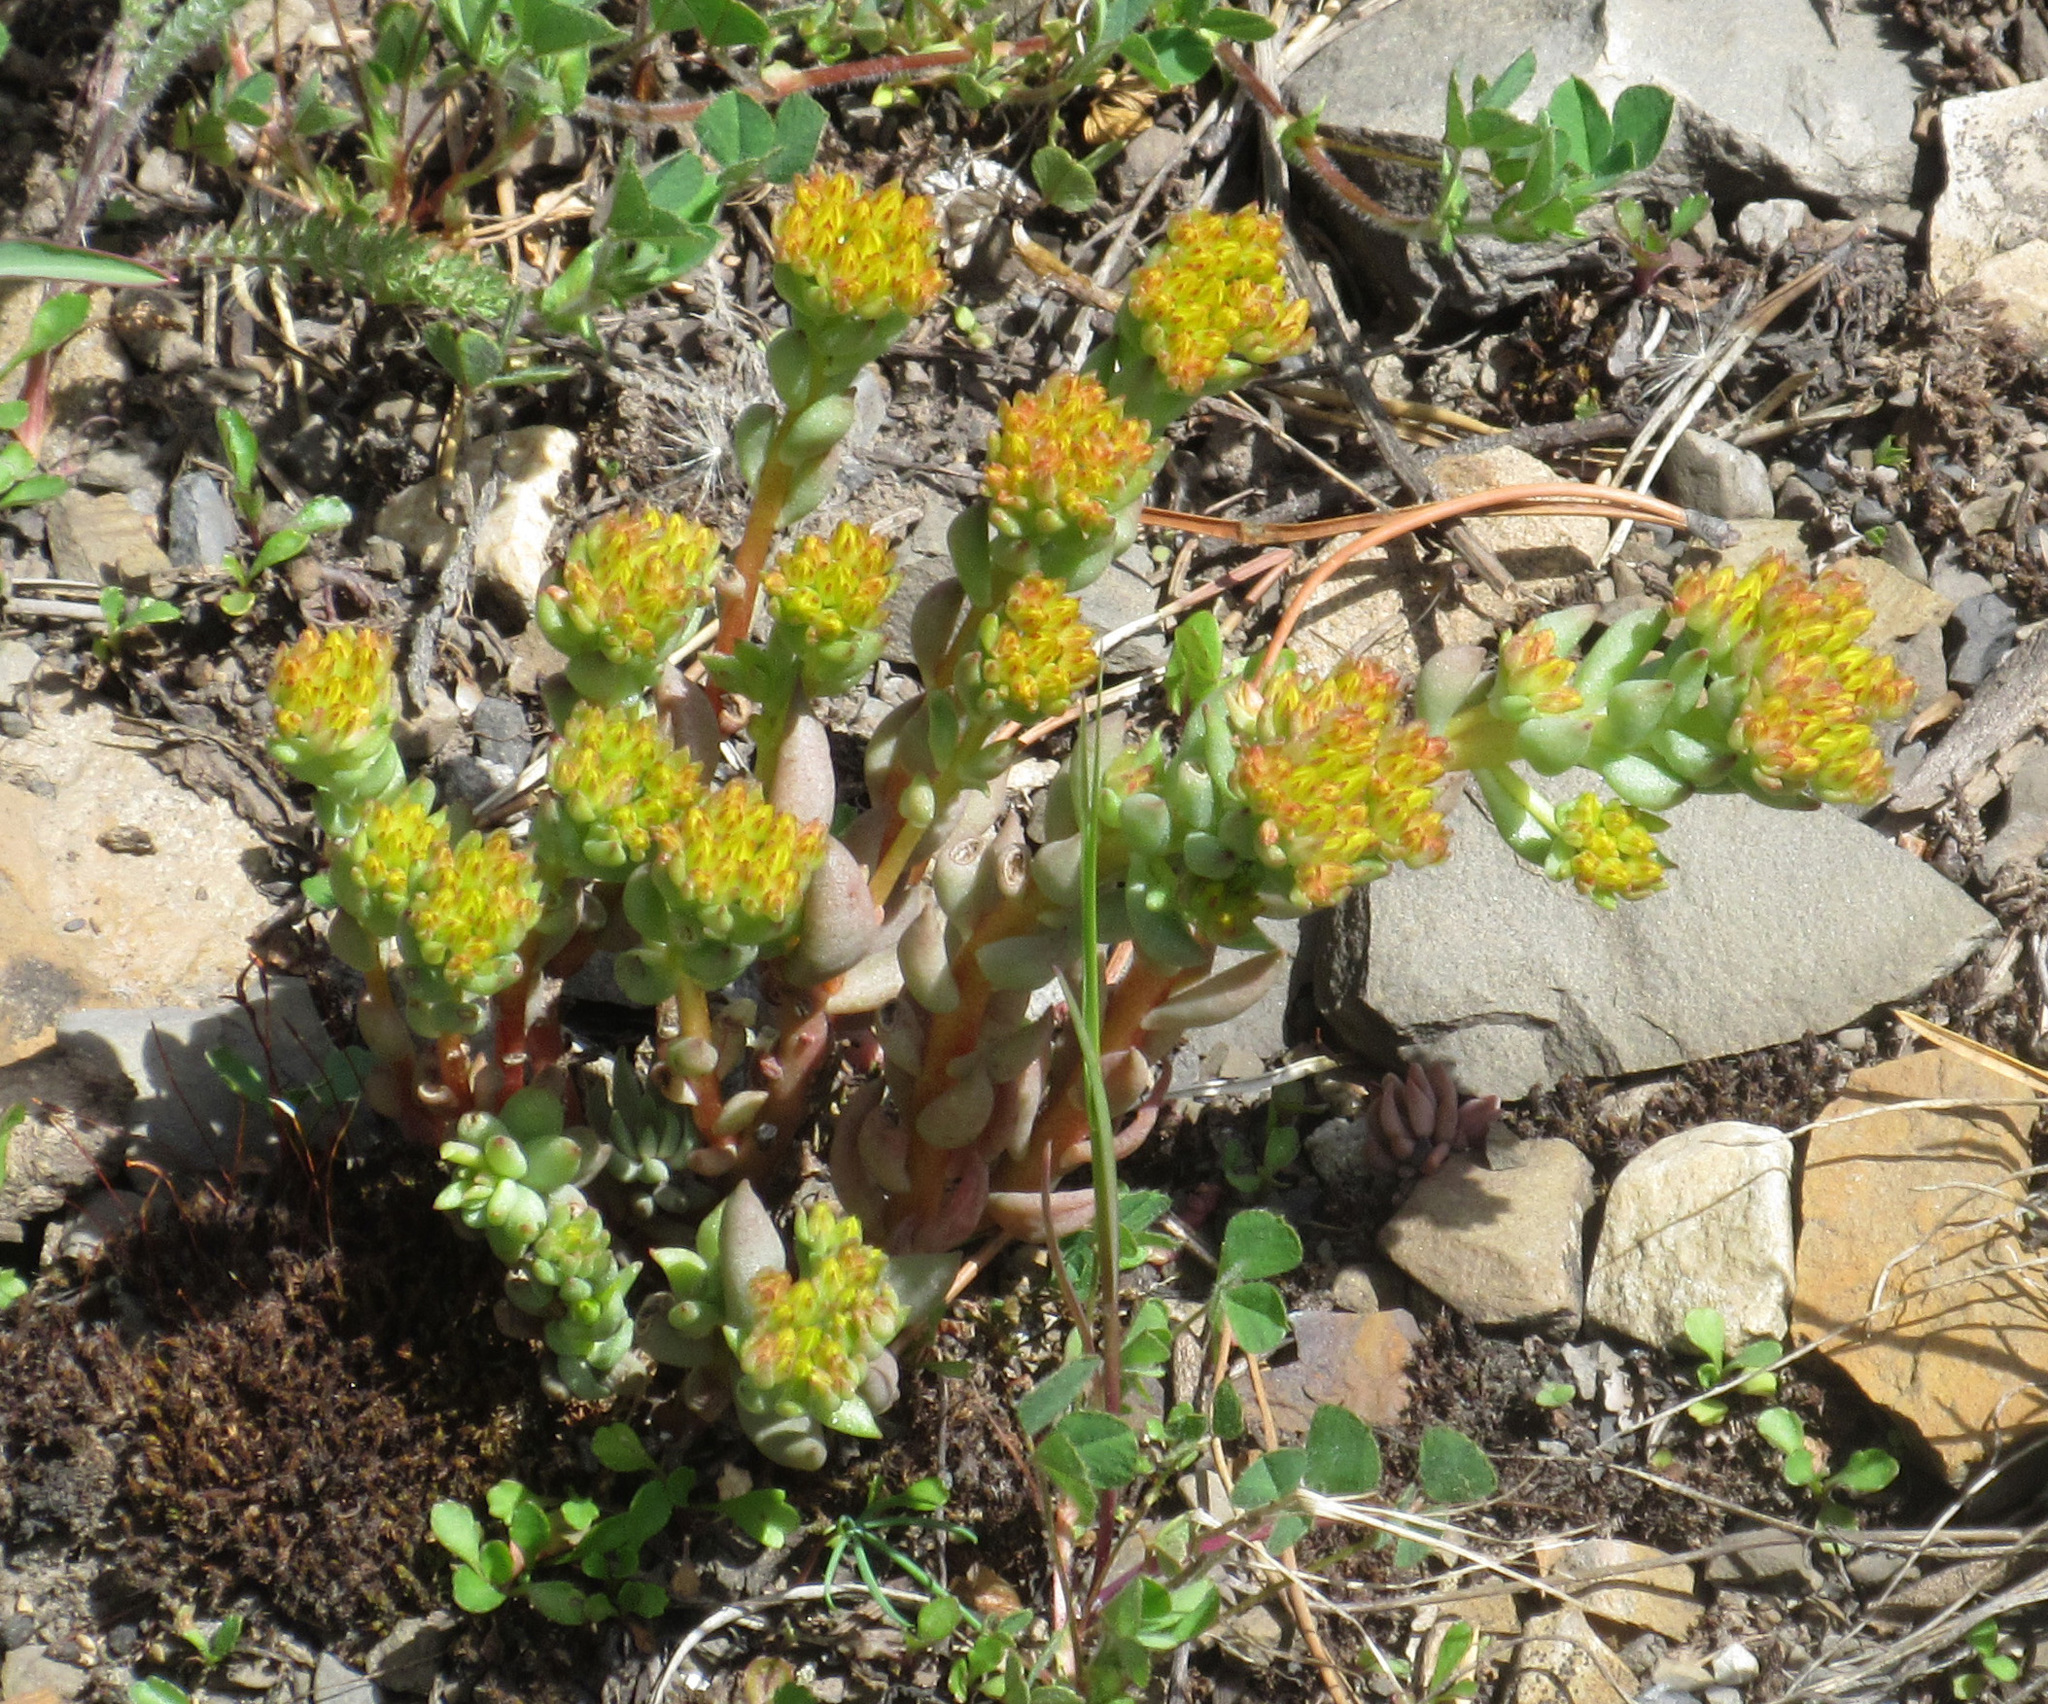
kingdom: Plantae
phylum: Tracheophyta
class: Magnoliopsida
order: Saxifragales
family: Crassulaceae
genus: Sedum
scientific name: Sedum lanceolatum
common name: Common stonecrop
